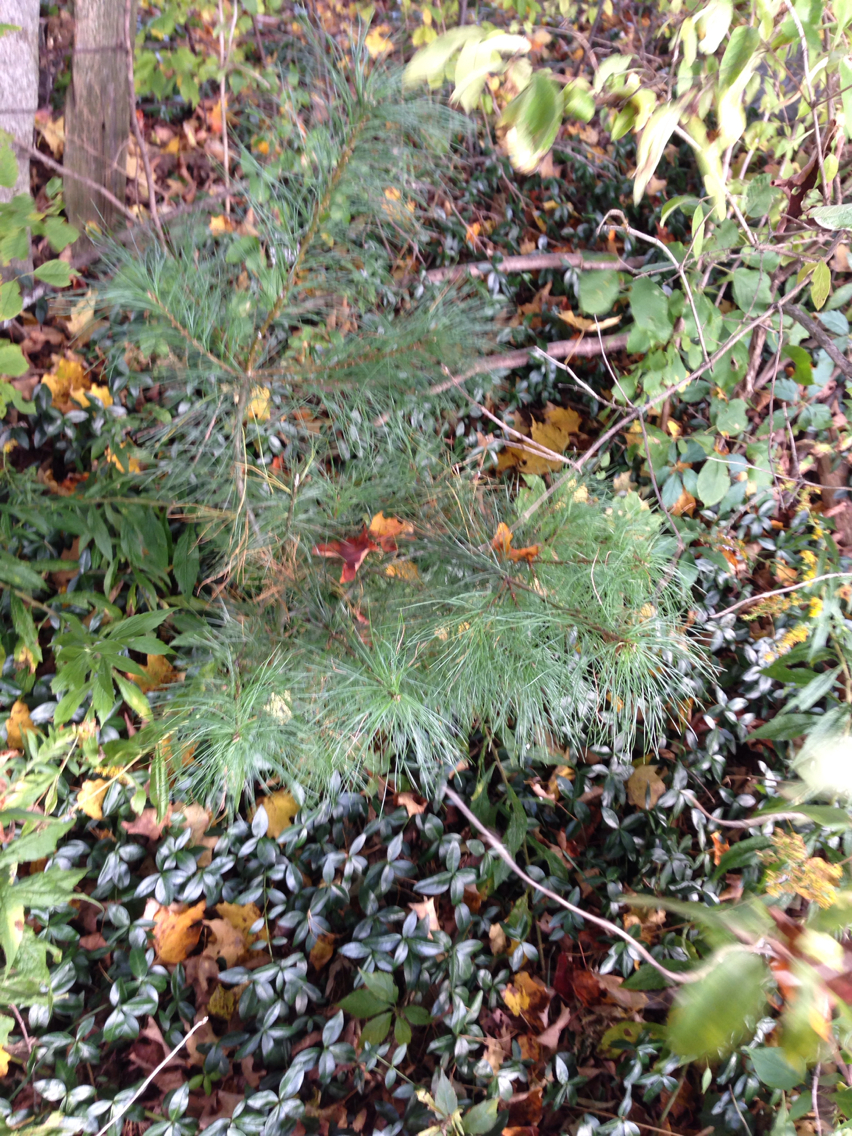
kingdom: Plantae
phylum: Tracheophyta
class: Pinopsida
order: Pinales
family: Pinaceae
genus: Pinus
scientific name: Pinus strobus
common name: Weymouth pine
